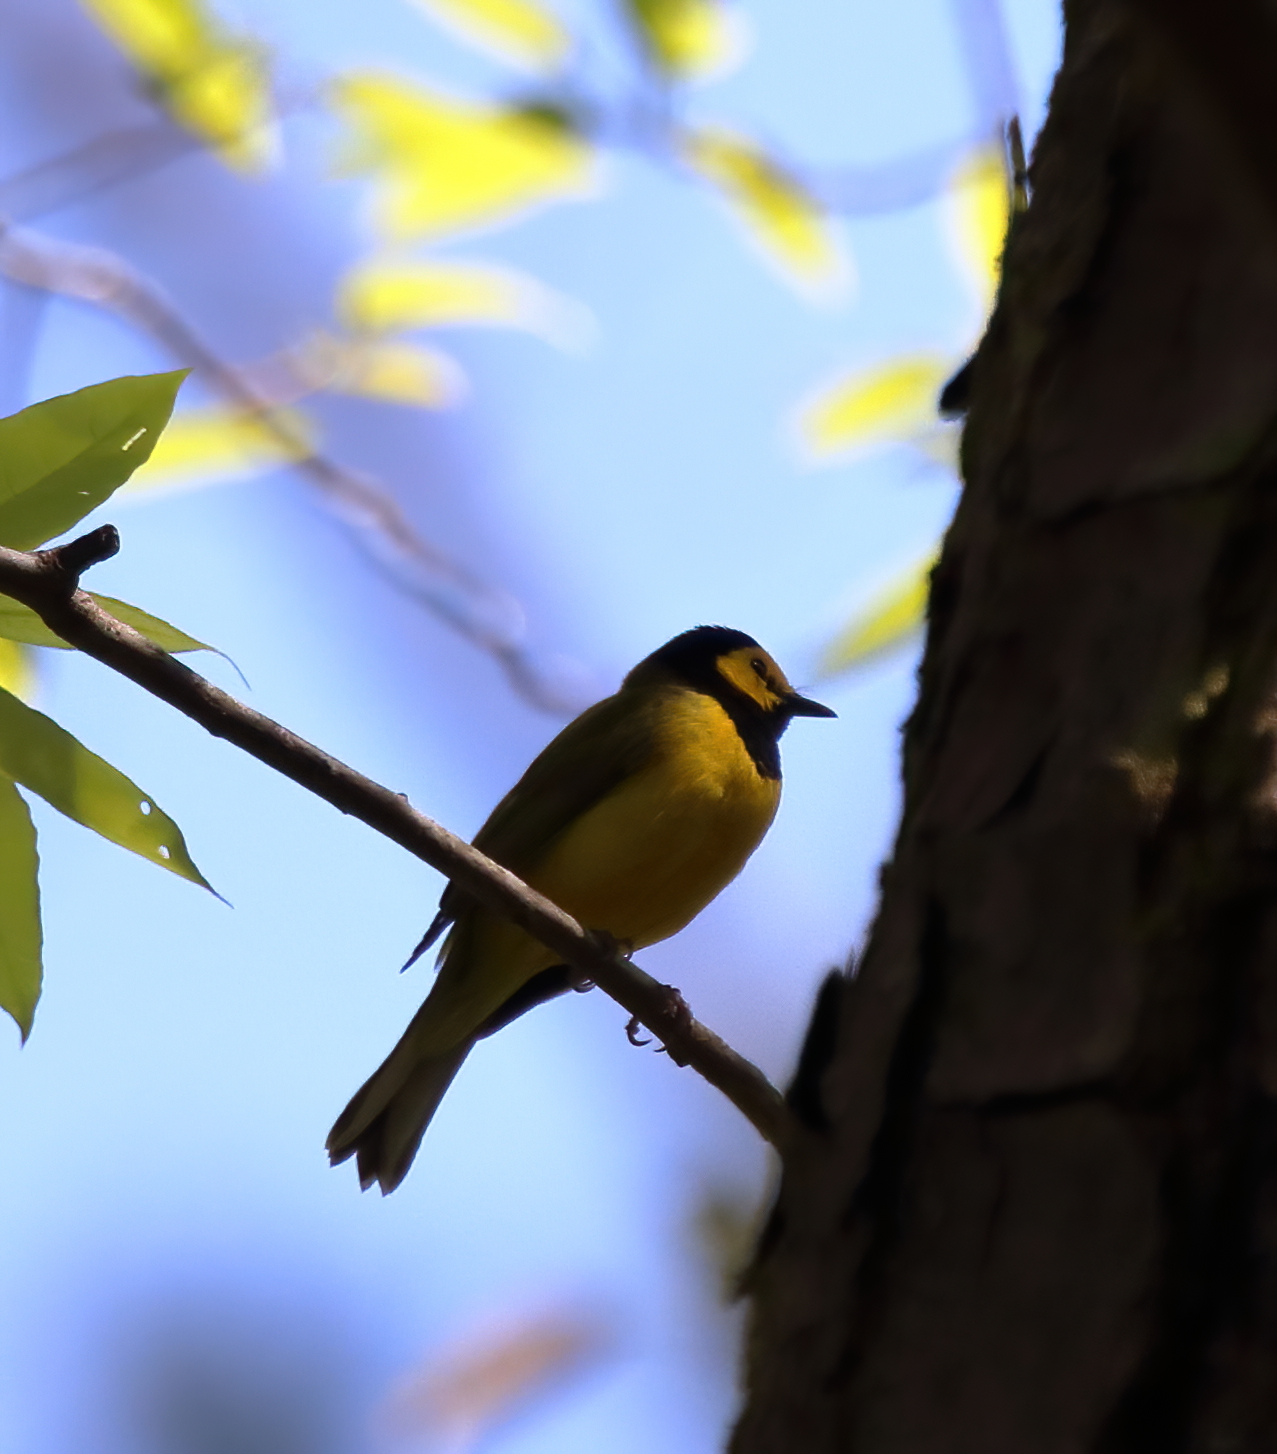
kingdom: Animalia
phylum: Chordata
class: Aves
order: Passeriformes
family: Parulidae
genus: Setophaga
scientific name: Setophaga citrina
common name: Hooded warbler
